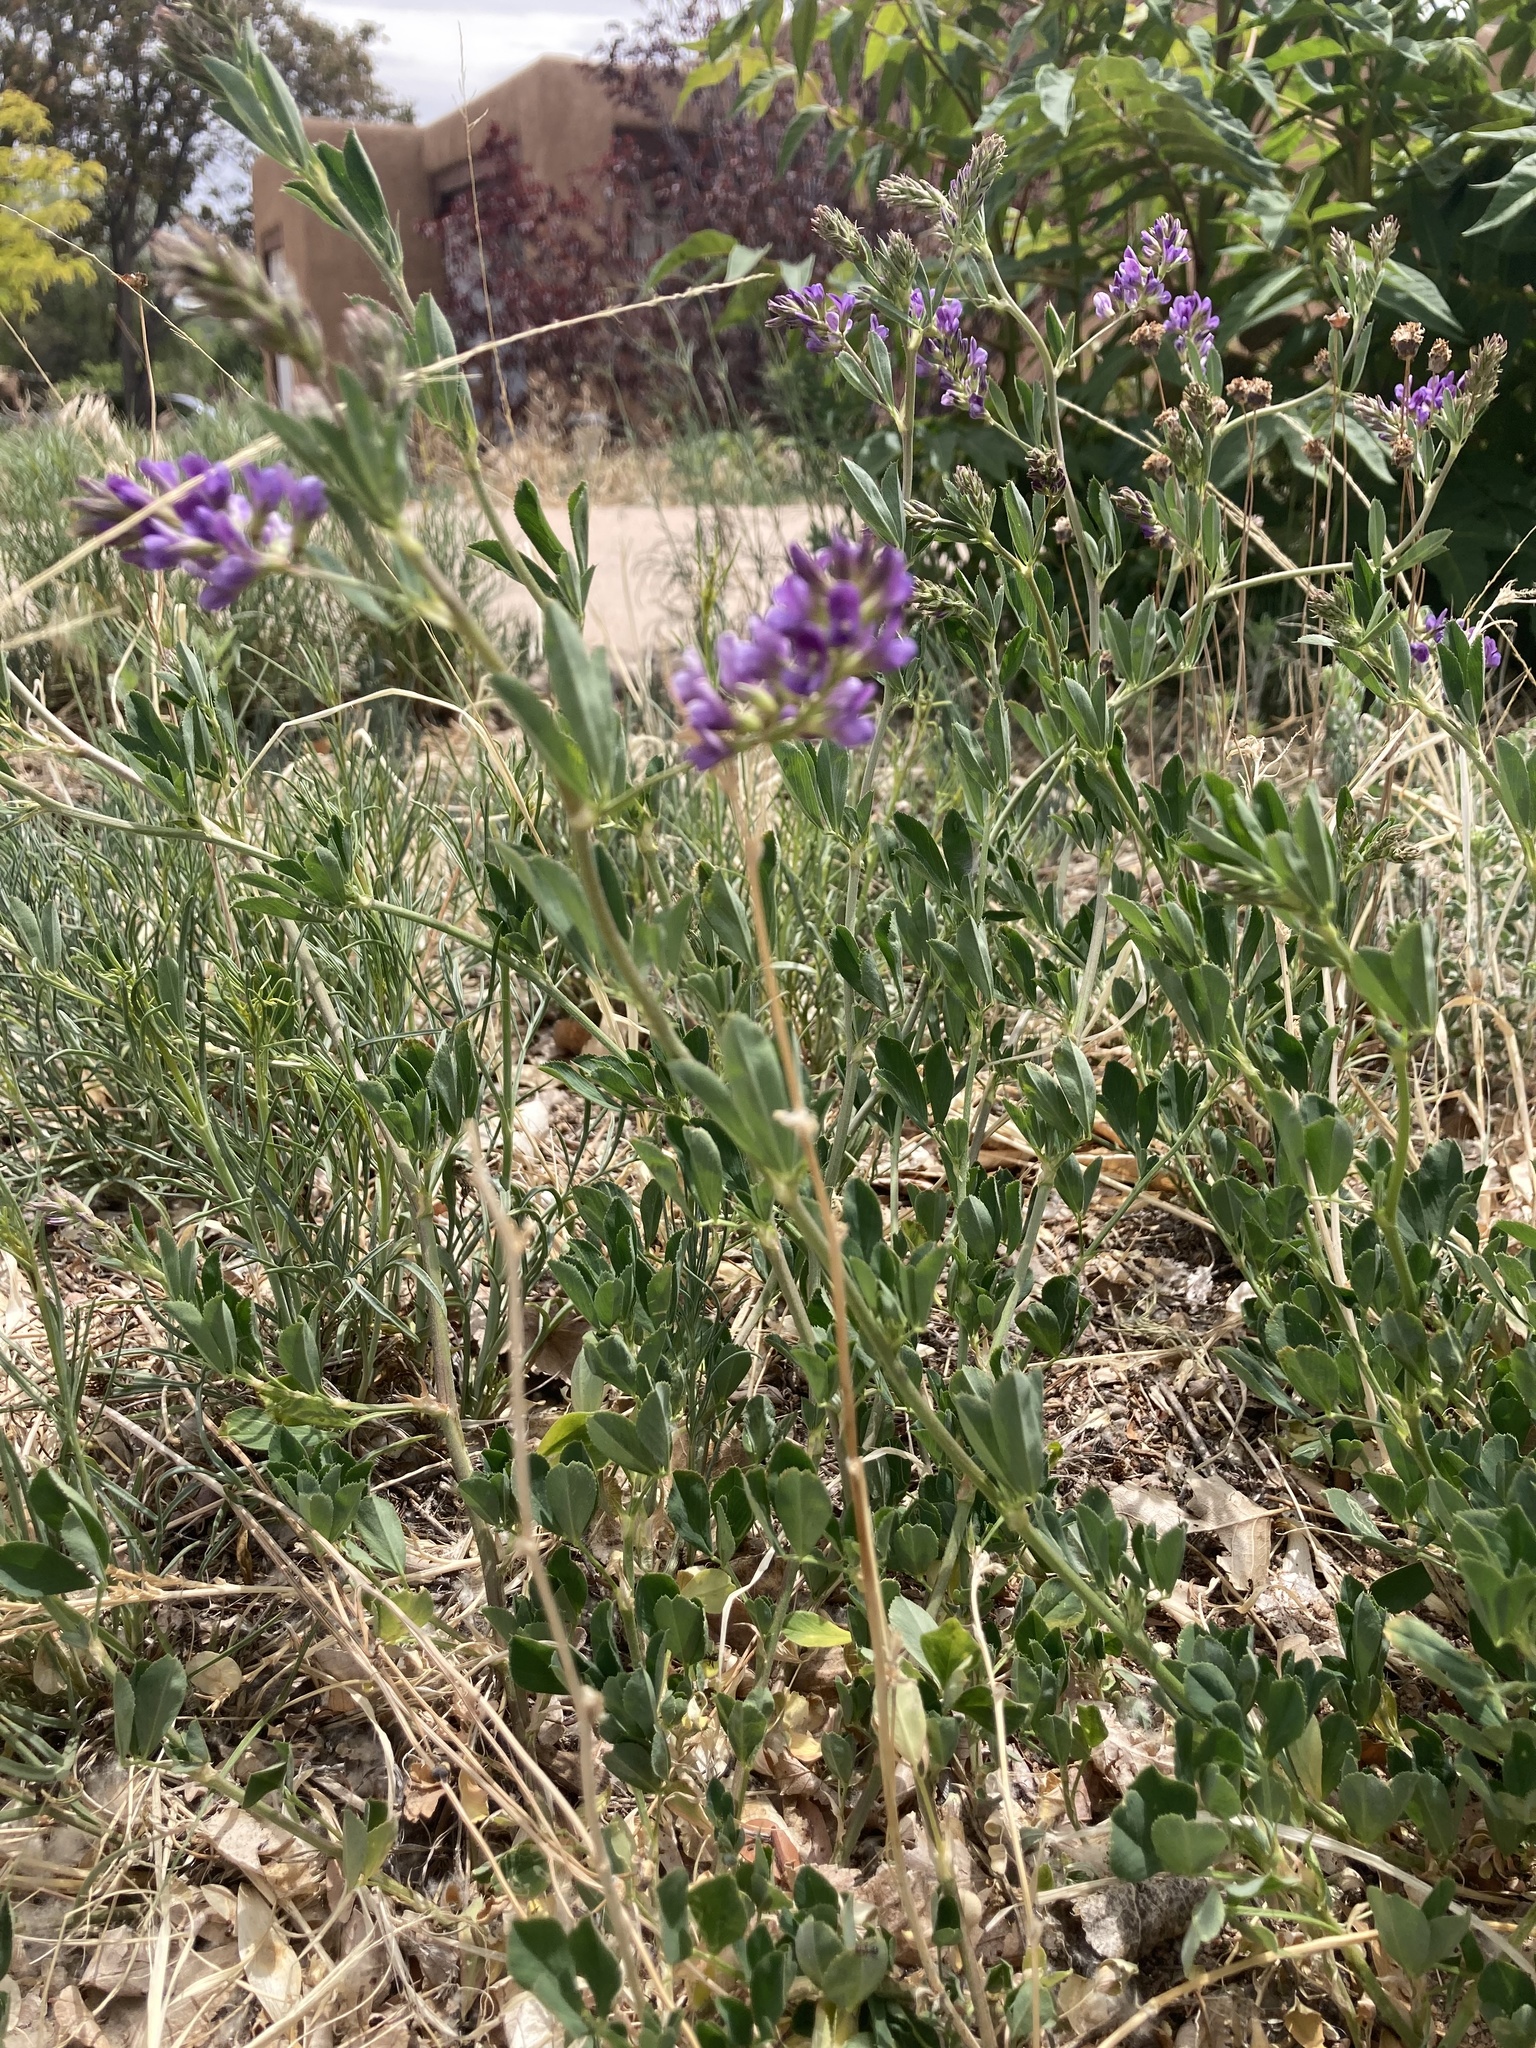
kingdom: Plantae
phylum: Tracheophyta
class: Magnoliopsida
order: Fabales
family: Fabaceae
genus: Medicago
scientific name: Medicago sativa
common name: Alfalfa
